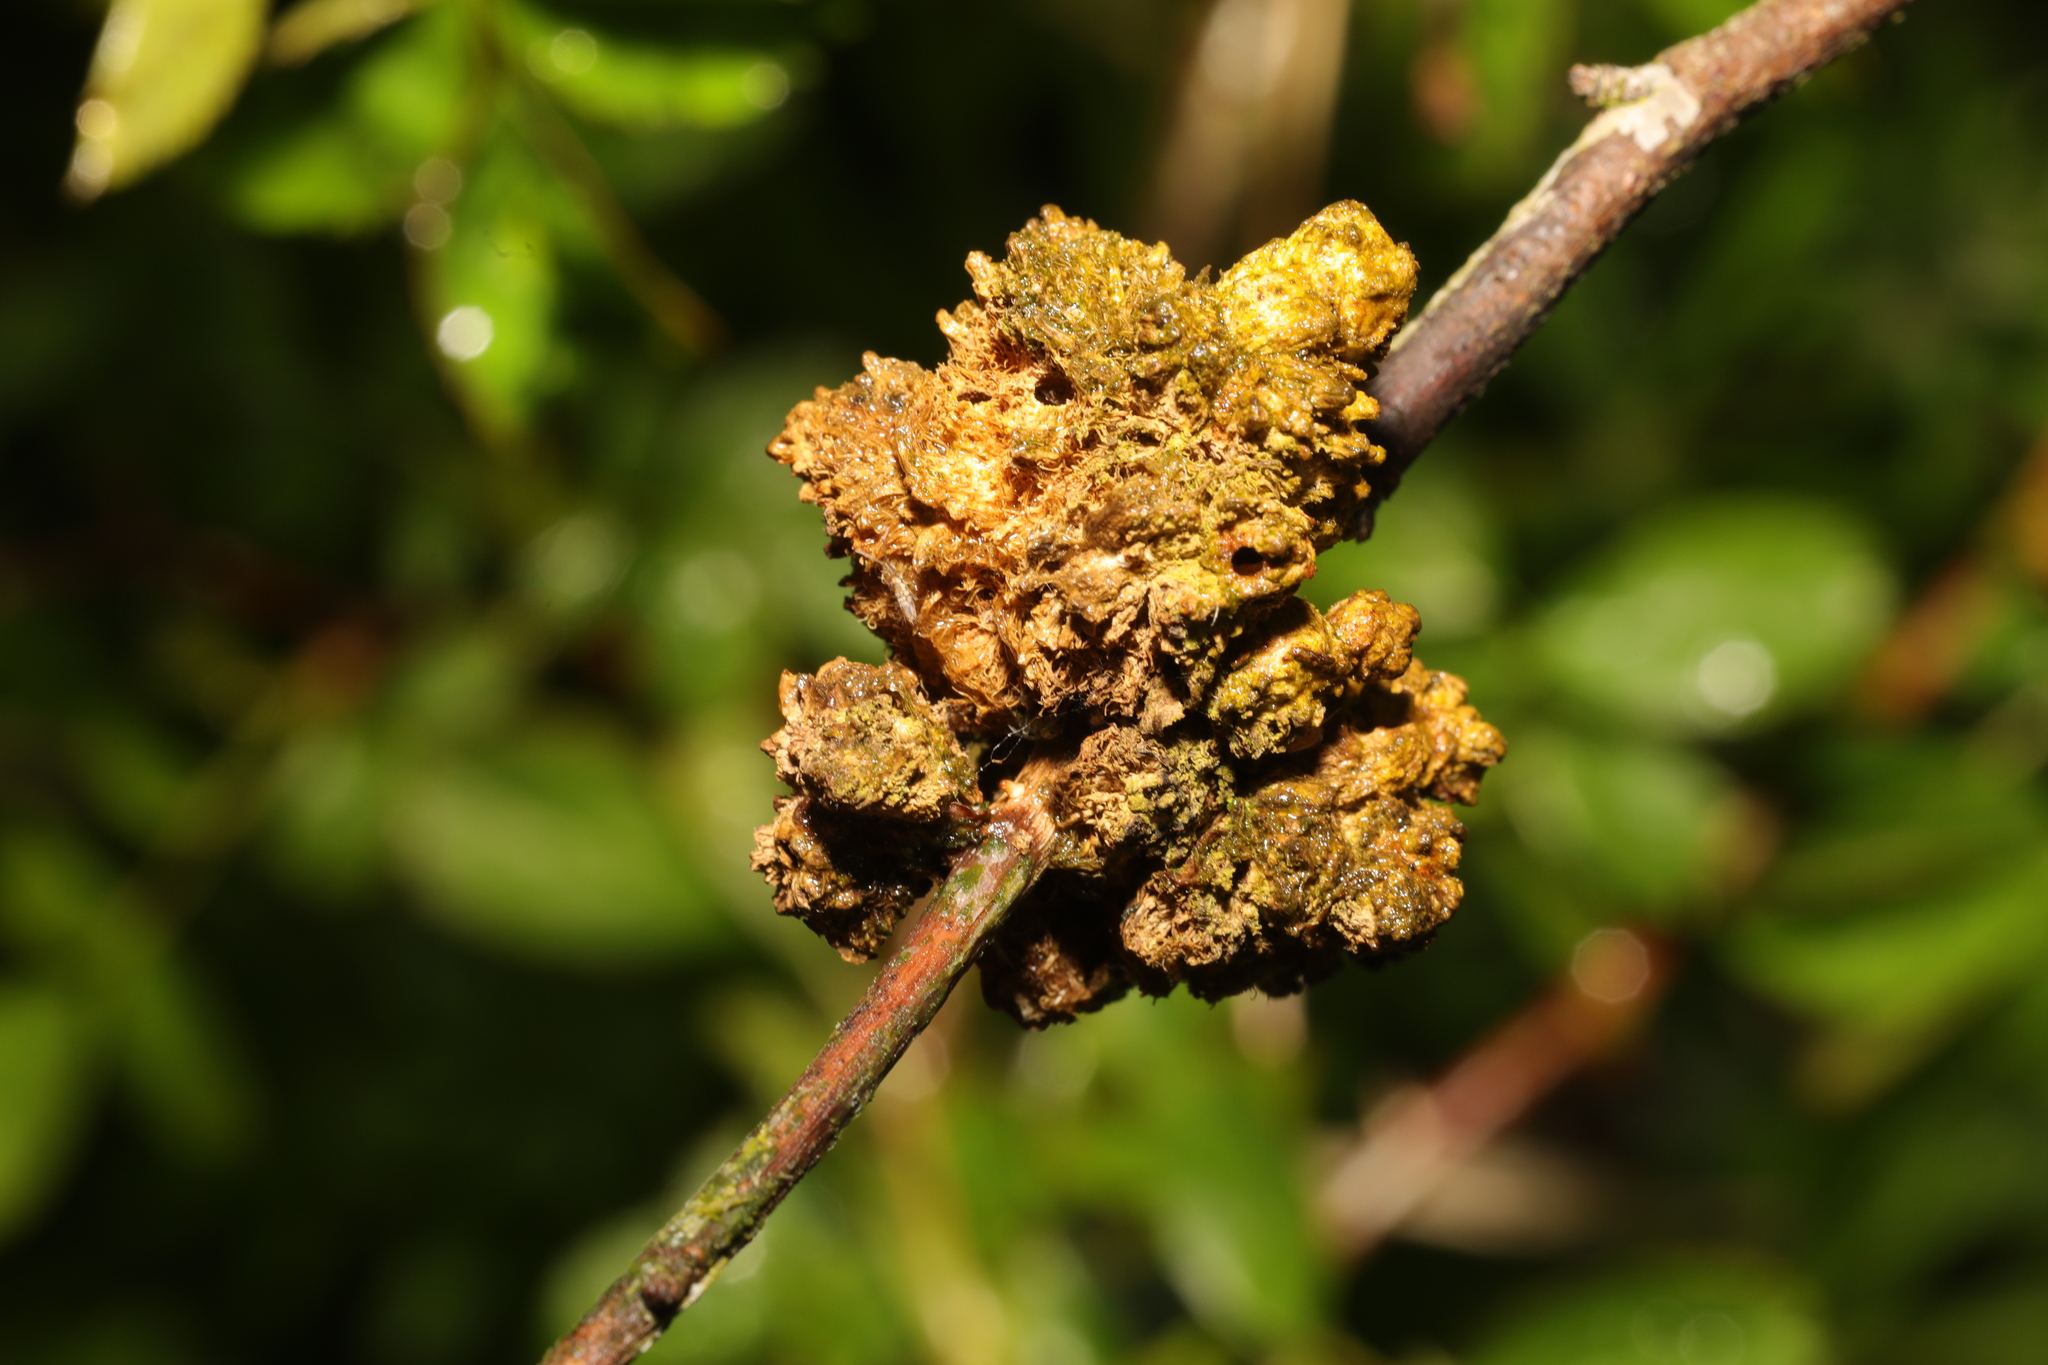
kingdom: Animalia
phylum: Arthropoda
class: Insecta
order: Hymenoptera
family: Cynipidae
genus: Diplolepis
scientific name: Diplolepis rosae
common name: Bedeguar gall
